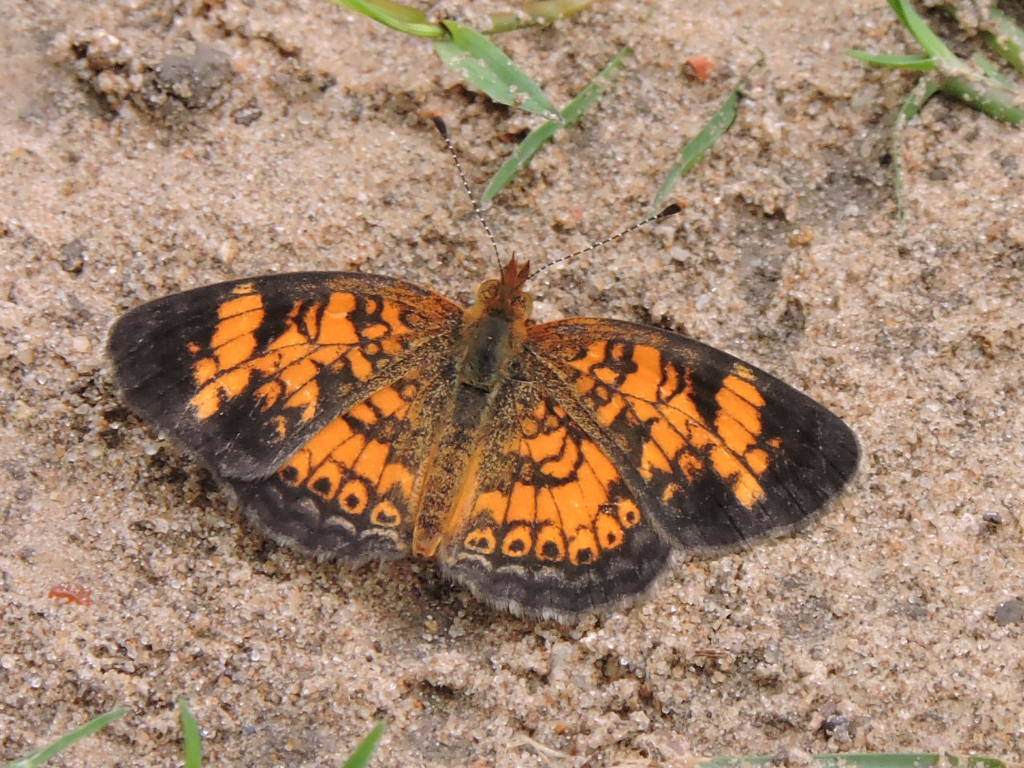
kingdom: Animalia
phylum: Arthropoda
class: Insecta
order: Lepidoptera
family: Nymphalidae
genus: Phyciodes
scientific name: Phyciodes tharos
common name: Pearl crescent
